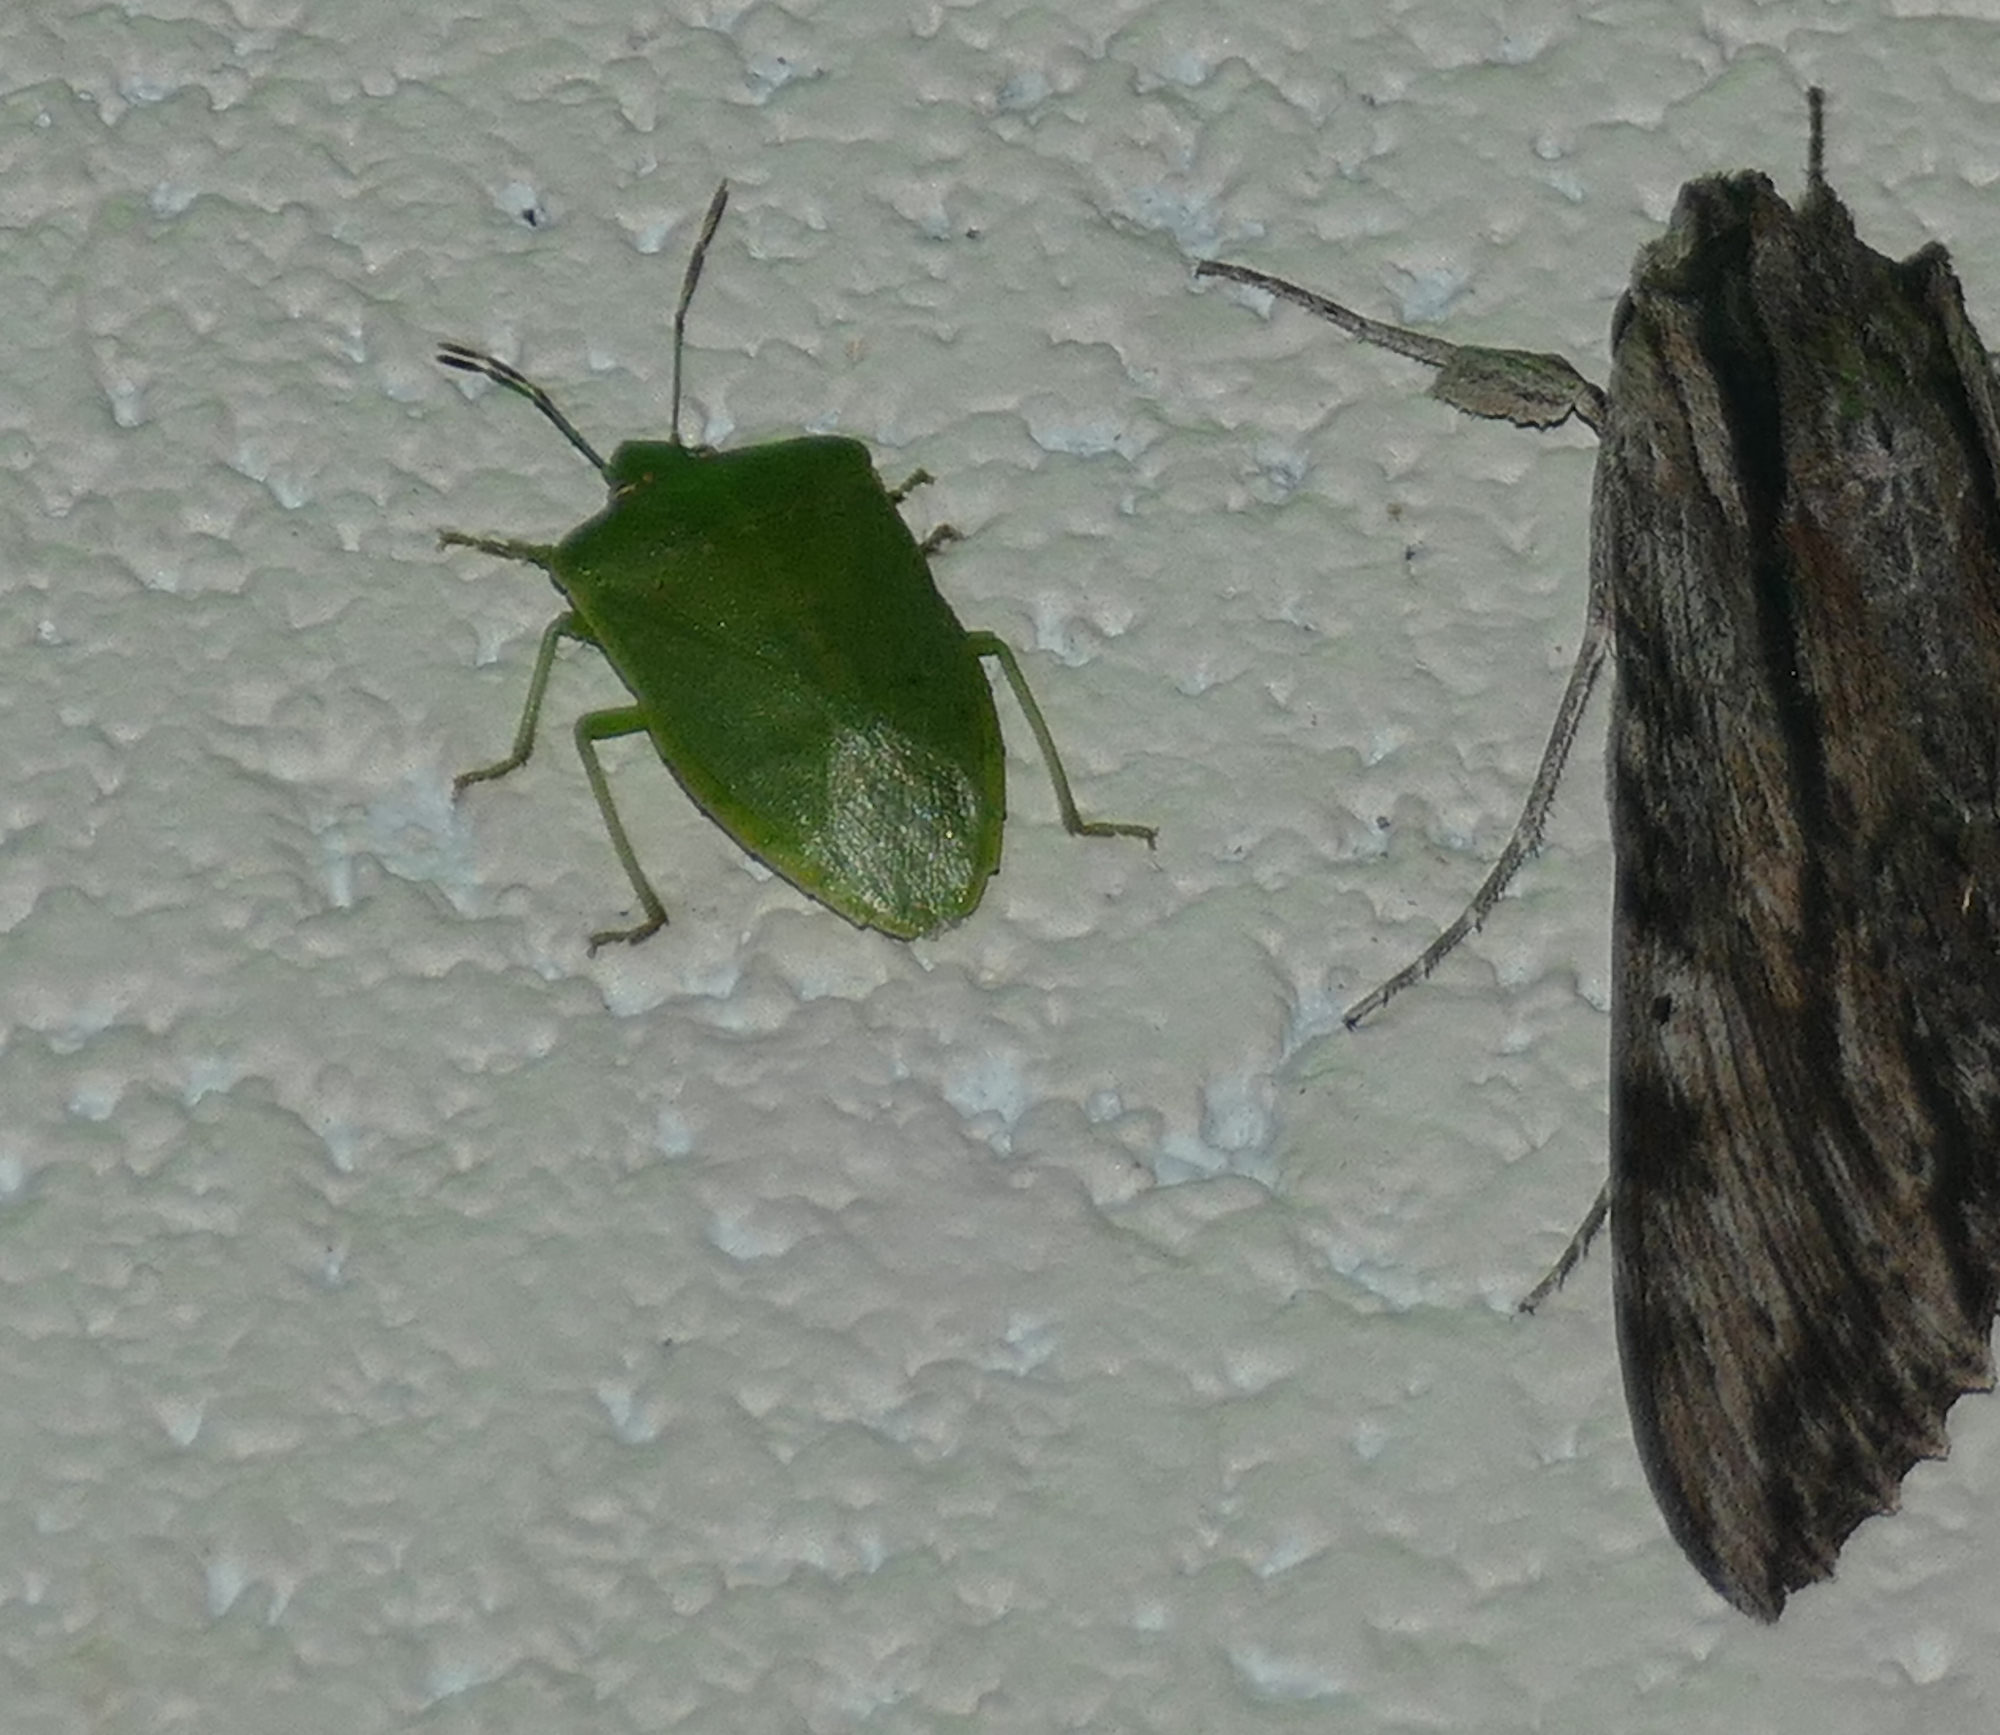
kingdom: Animalia
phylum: Arthropoda
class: Insecta
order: Hemiptera
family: Pentatomidae
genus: Nezara
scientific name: Nezara viridula
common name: Southern green stink bug
